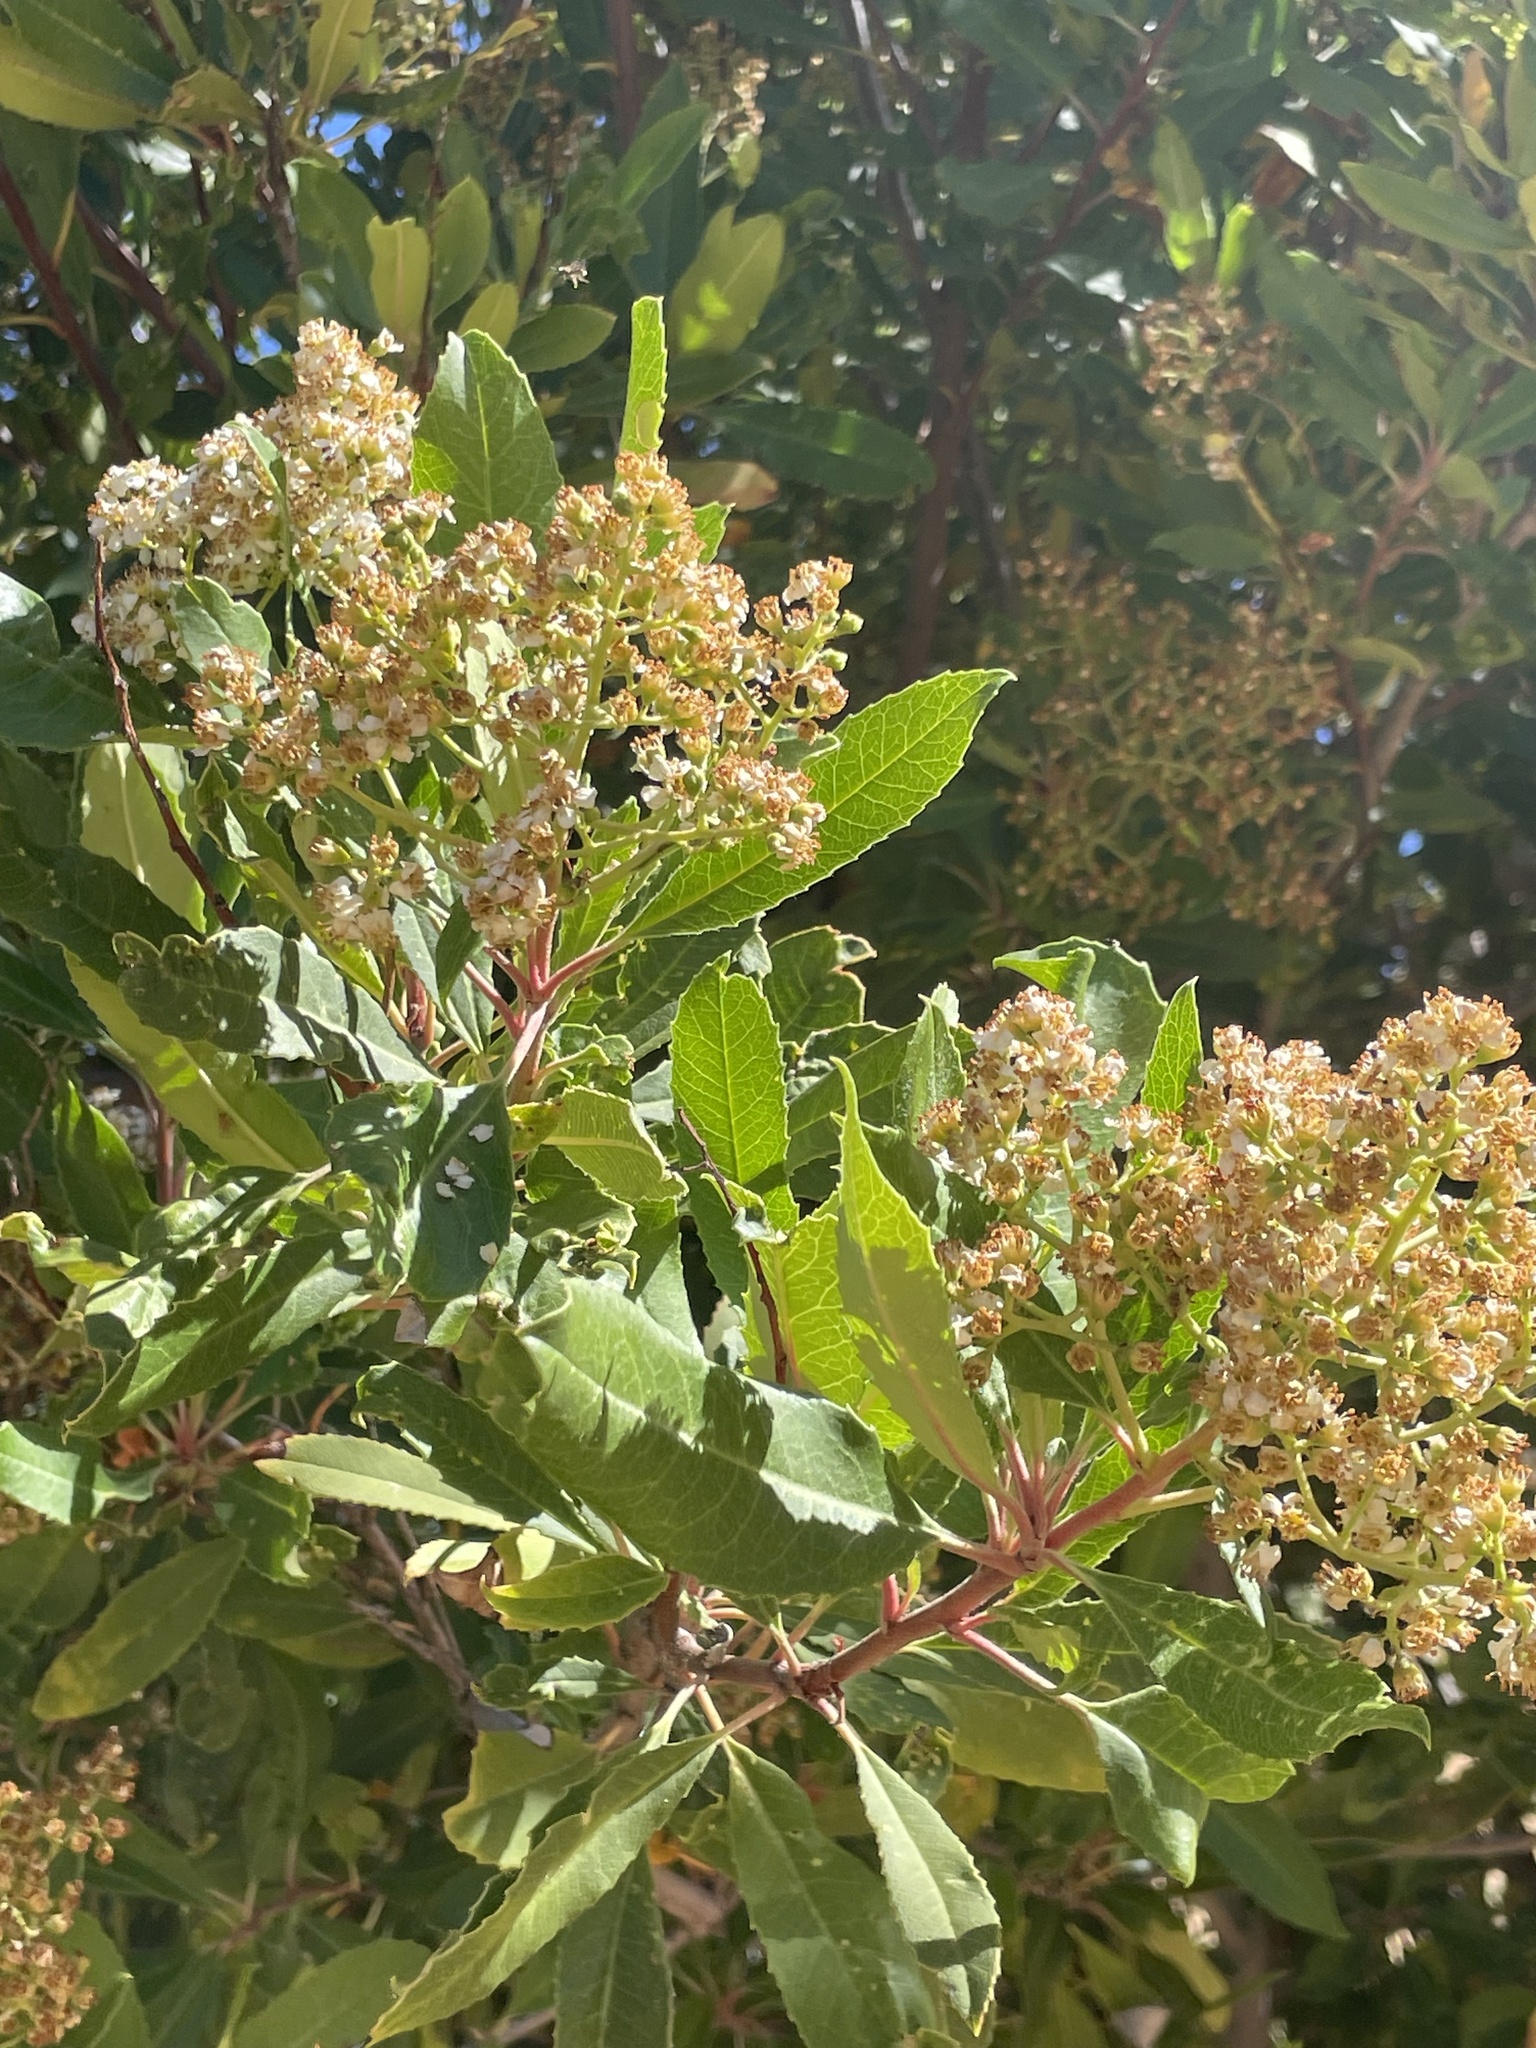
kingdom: Plantae
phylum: Tracheophyta
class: Magnoliopsida
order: Rosales
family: Rosaceae
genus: Heteromeles
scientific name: Heteromeles arbutifolia
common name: California-holly
